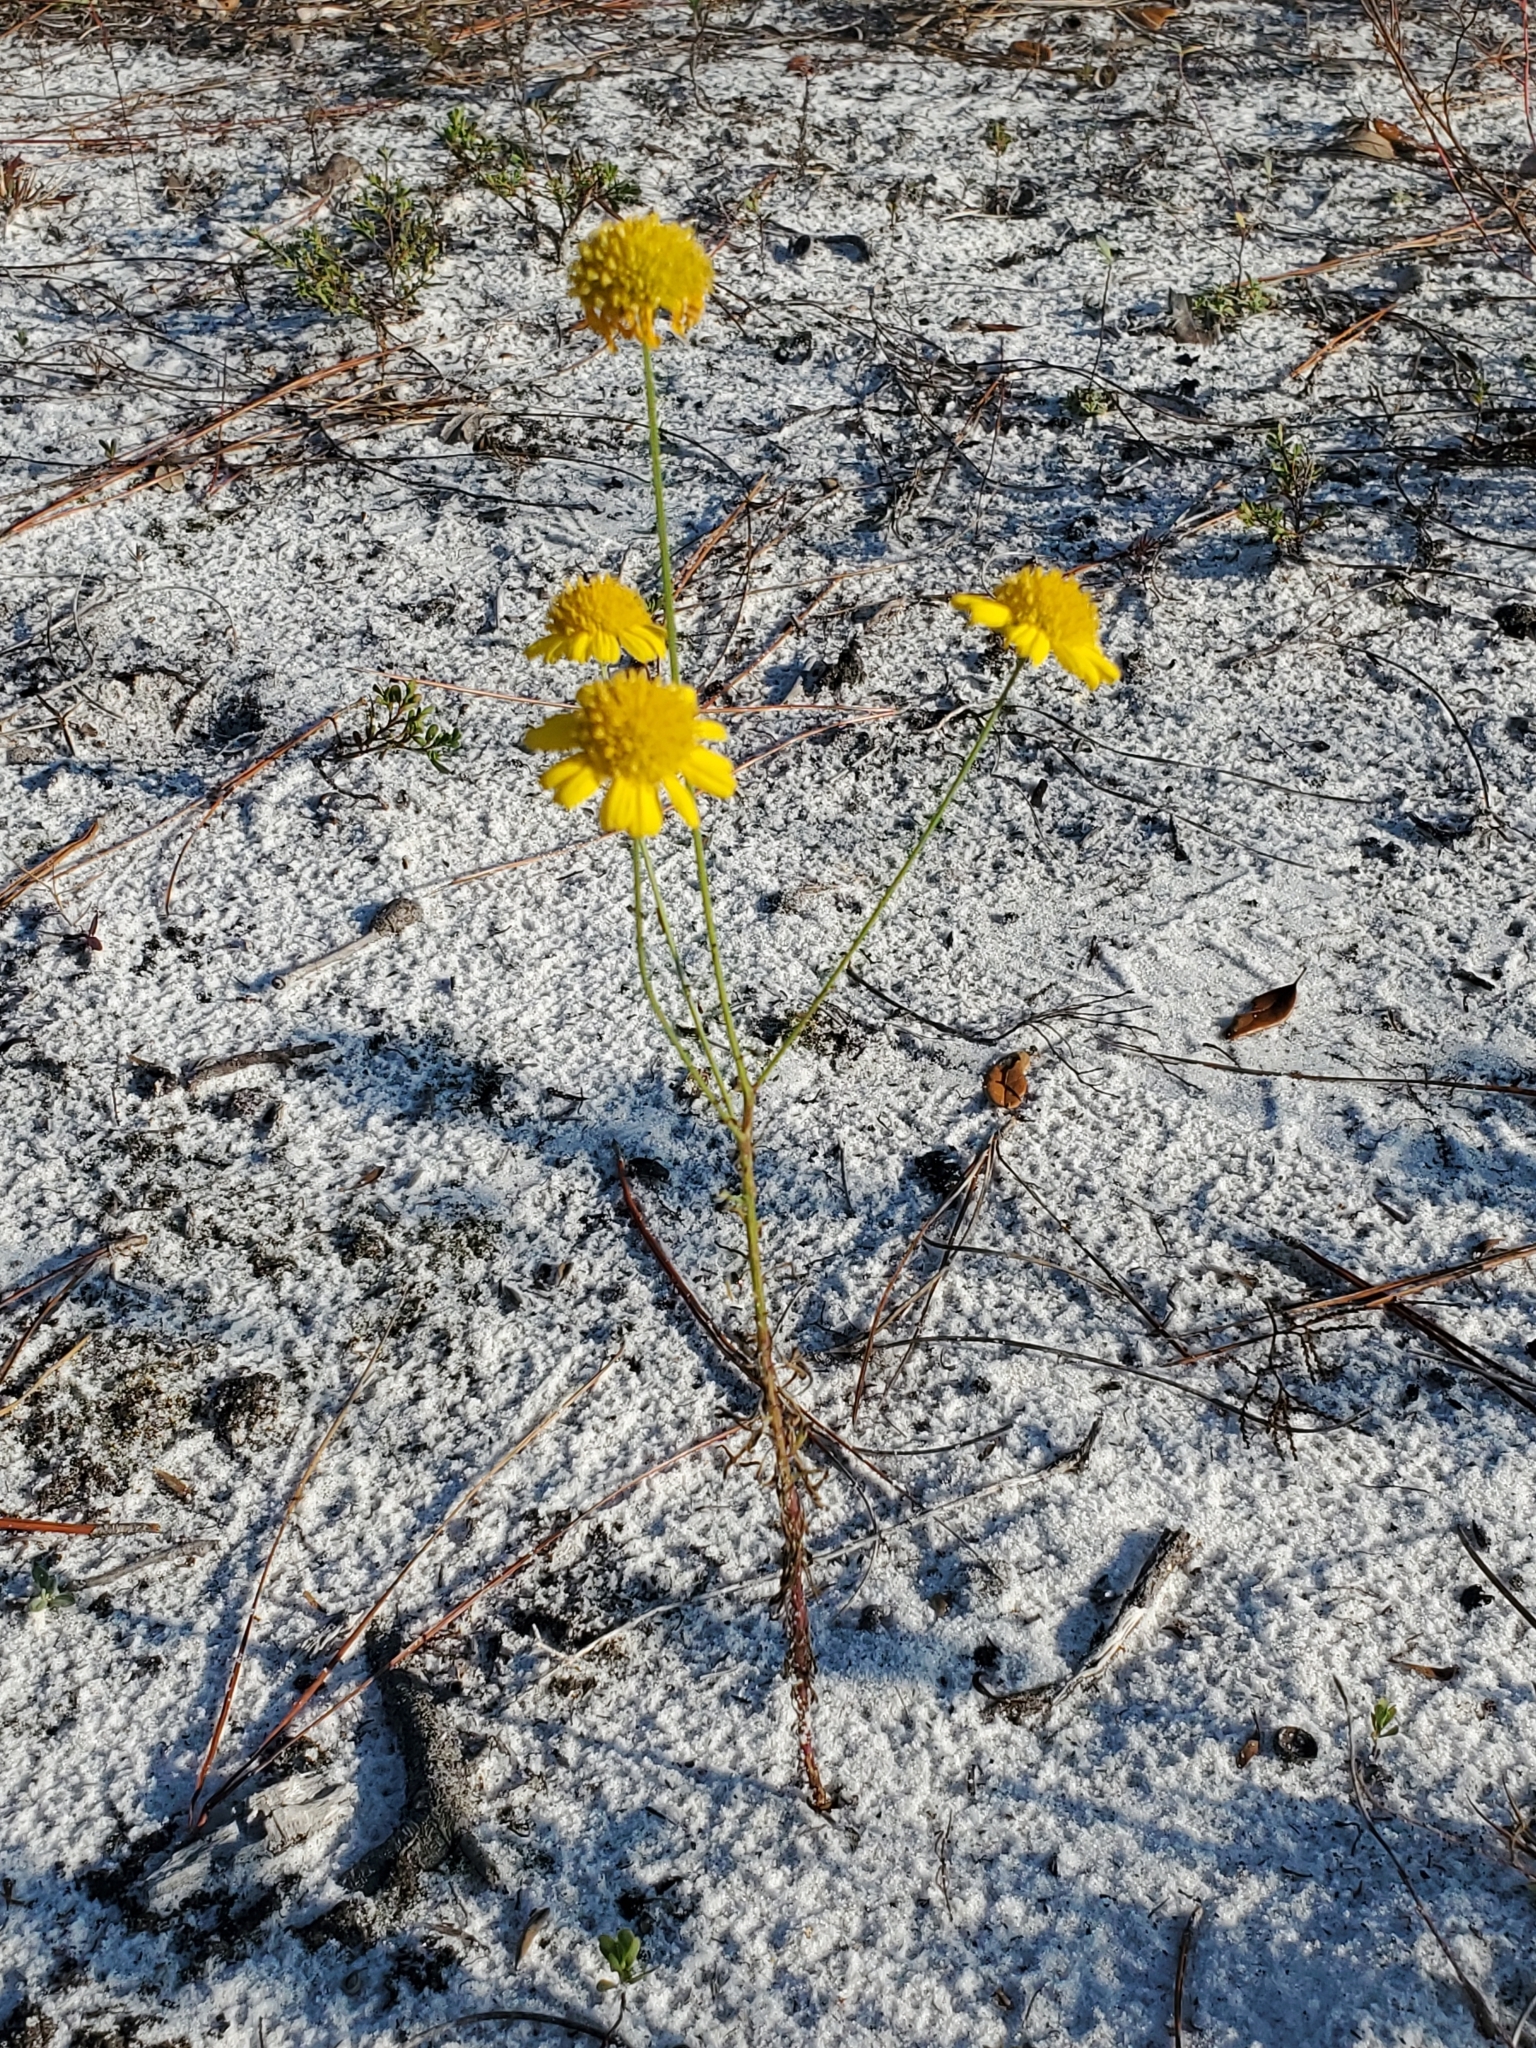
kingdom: Plantae
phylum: Tracheophyta
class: Magnoliopsida
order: Asterales
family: Asteraceae
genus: Balduina
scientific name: Balduina angustifolia
